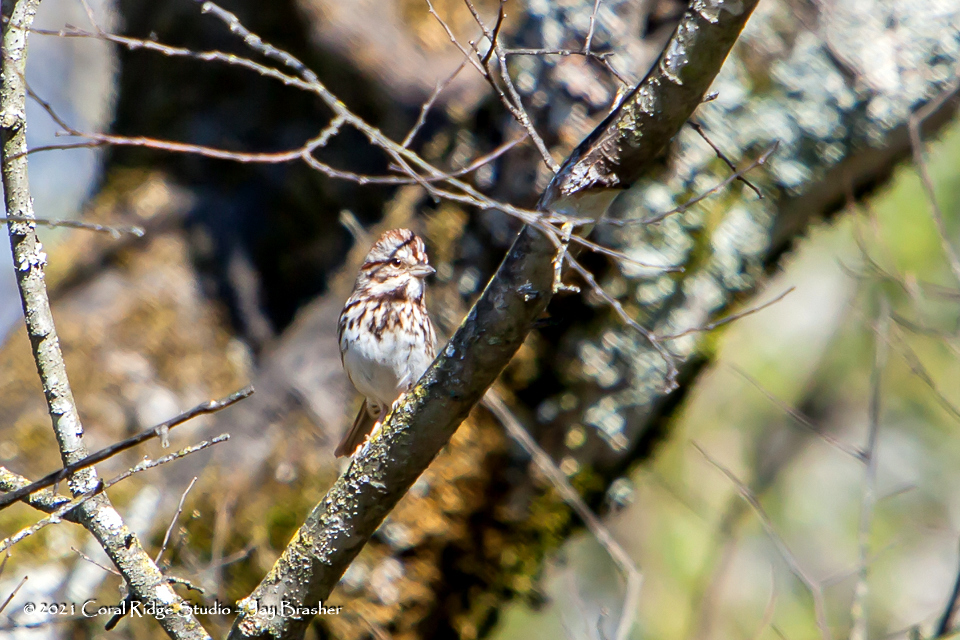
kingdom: Animalia
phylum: Chordata
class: Aves
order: Passeriformes
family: Passerellidae
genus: Melospiza
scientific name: Melospiza melodia
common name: Song sparrow
